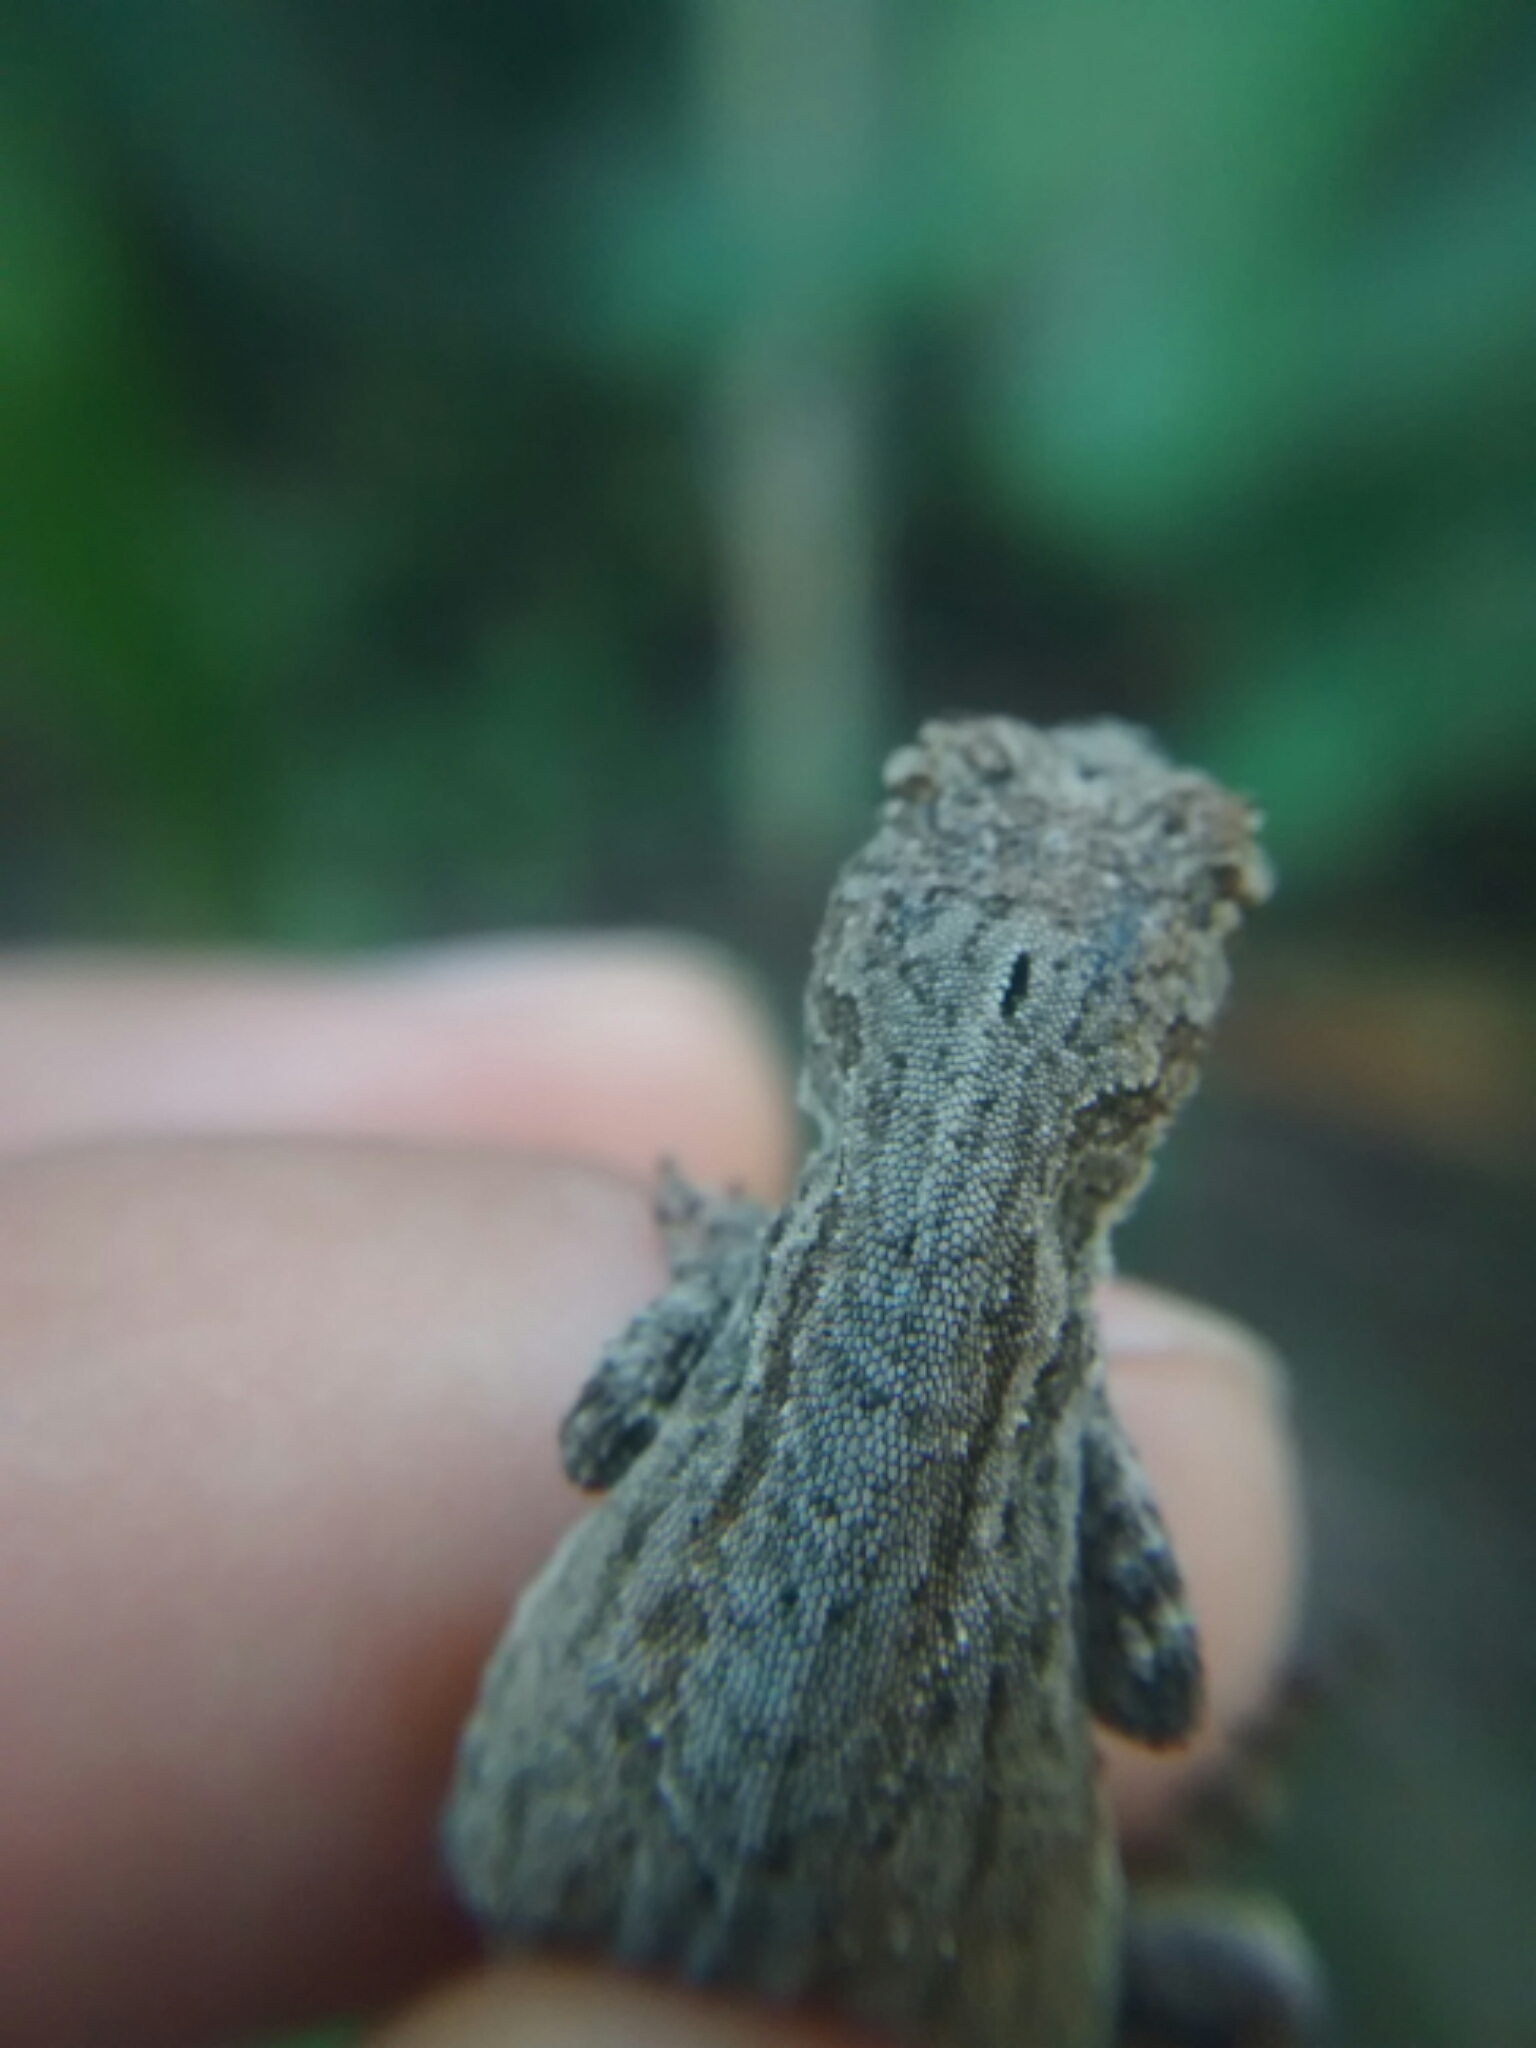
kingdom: Animalia
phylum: Chordata
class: Squamata
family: Dactyloidae
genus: Anolis
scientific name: Anolis laeviventris
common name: White anole
